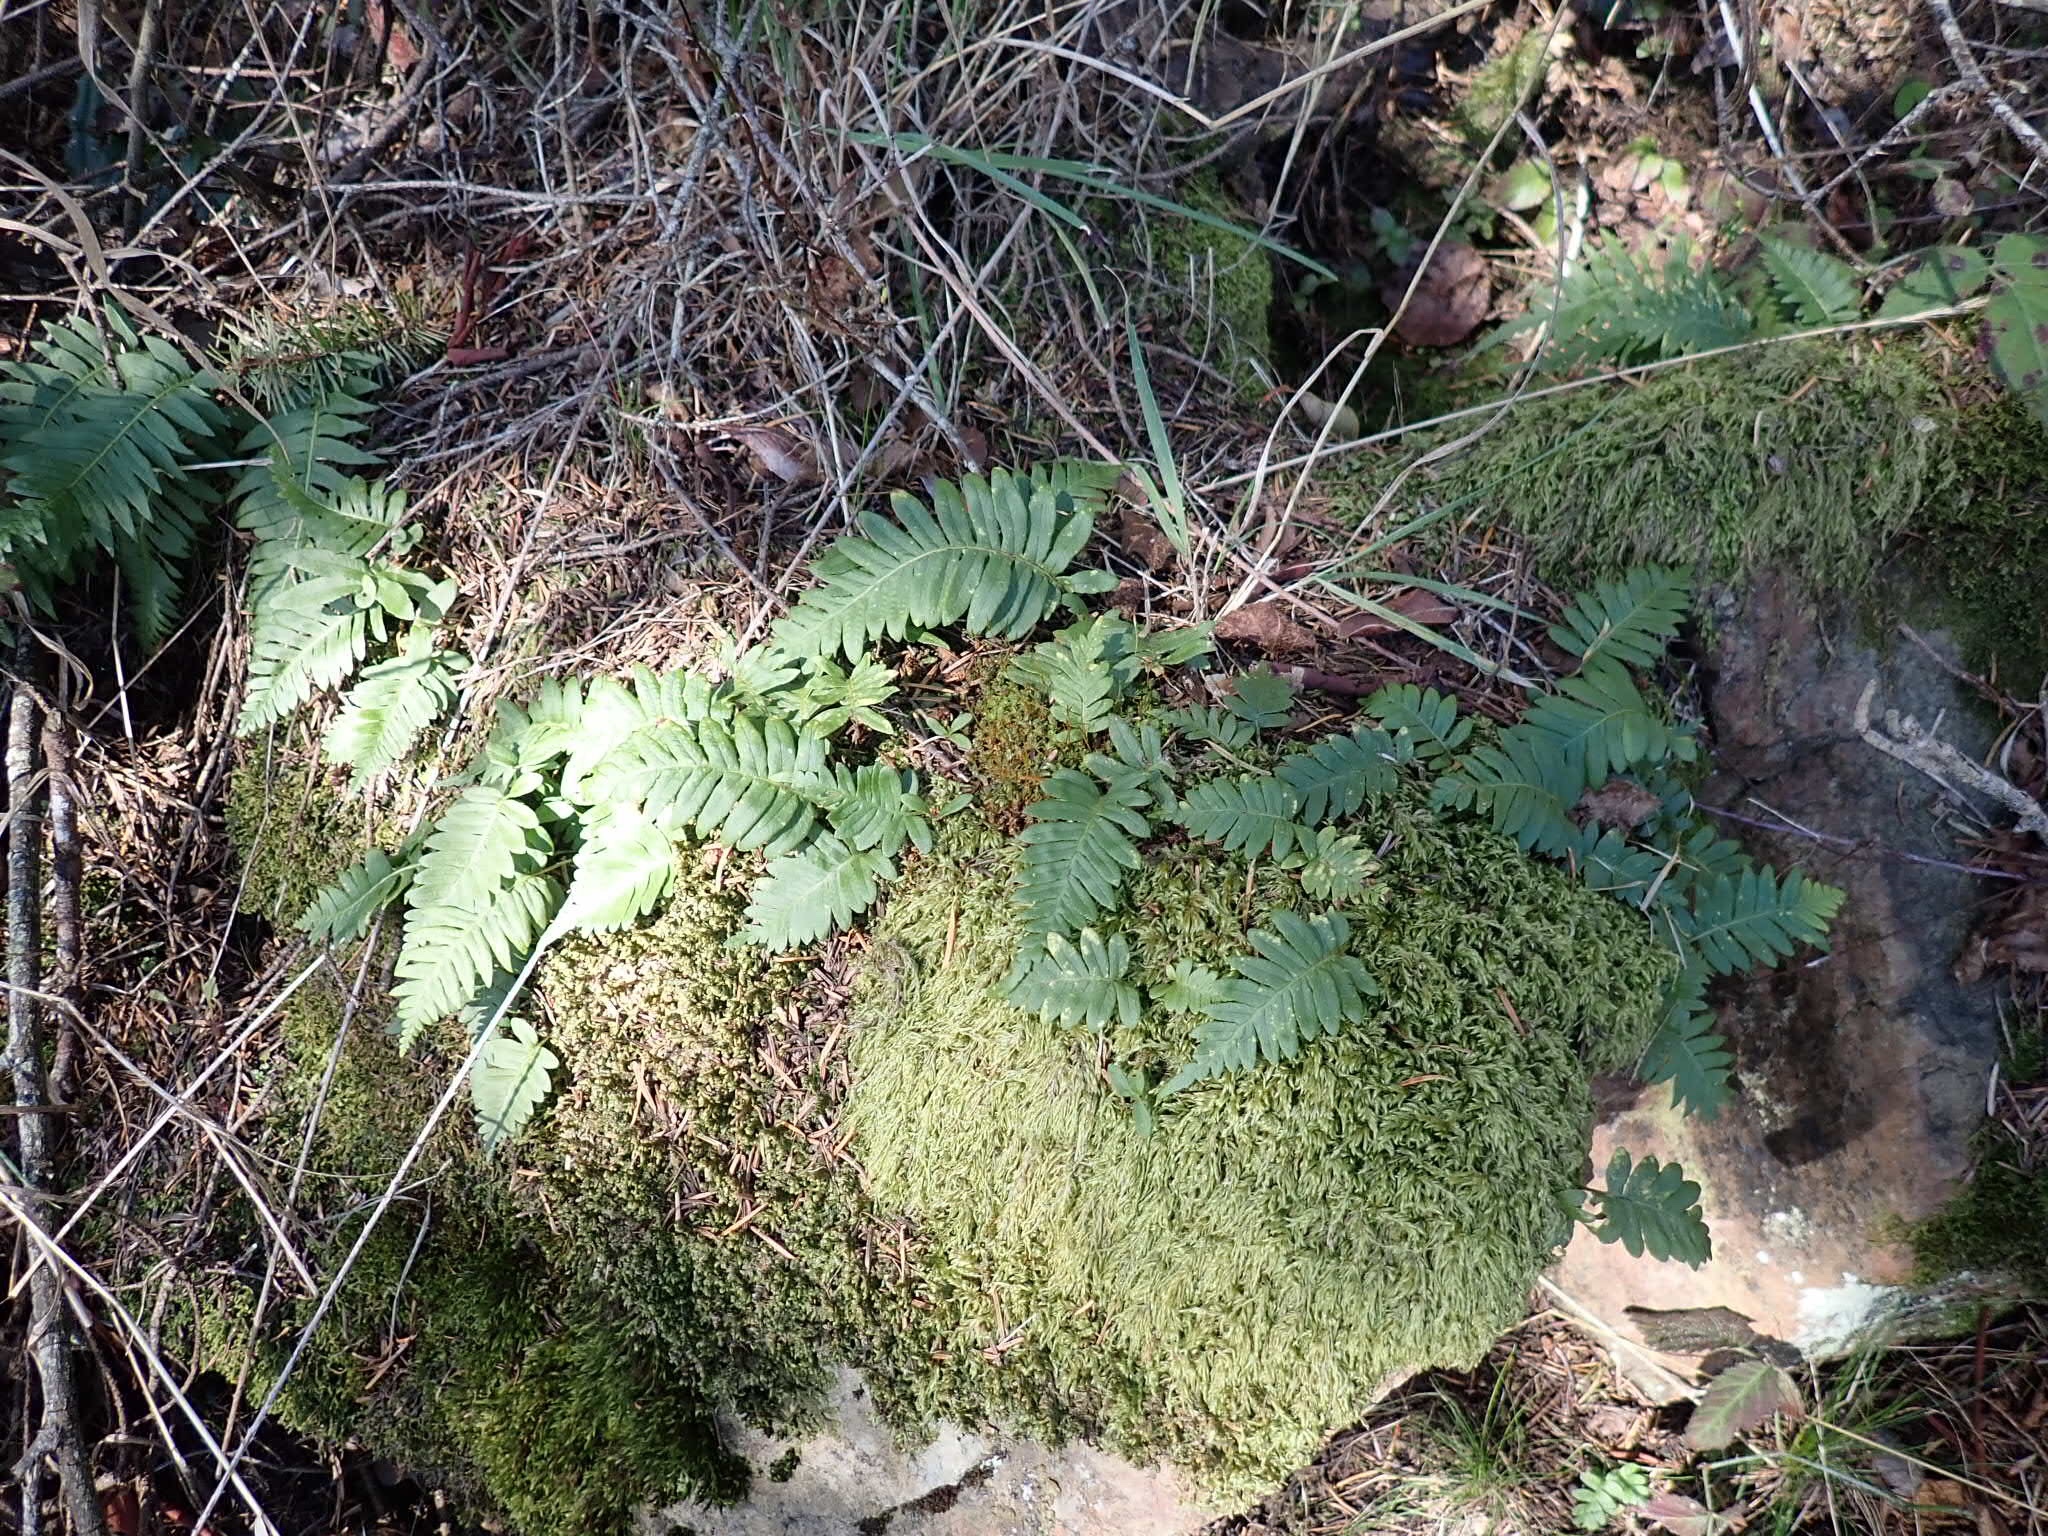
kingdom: Plantae
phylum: Tracheophyta
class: Polypodiopsida
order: Polypodiales
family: Polypodiaceae
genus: Polypodium
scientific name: Polypodium glycyrrhiza
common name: Licorice fern
